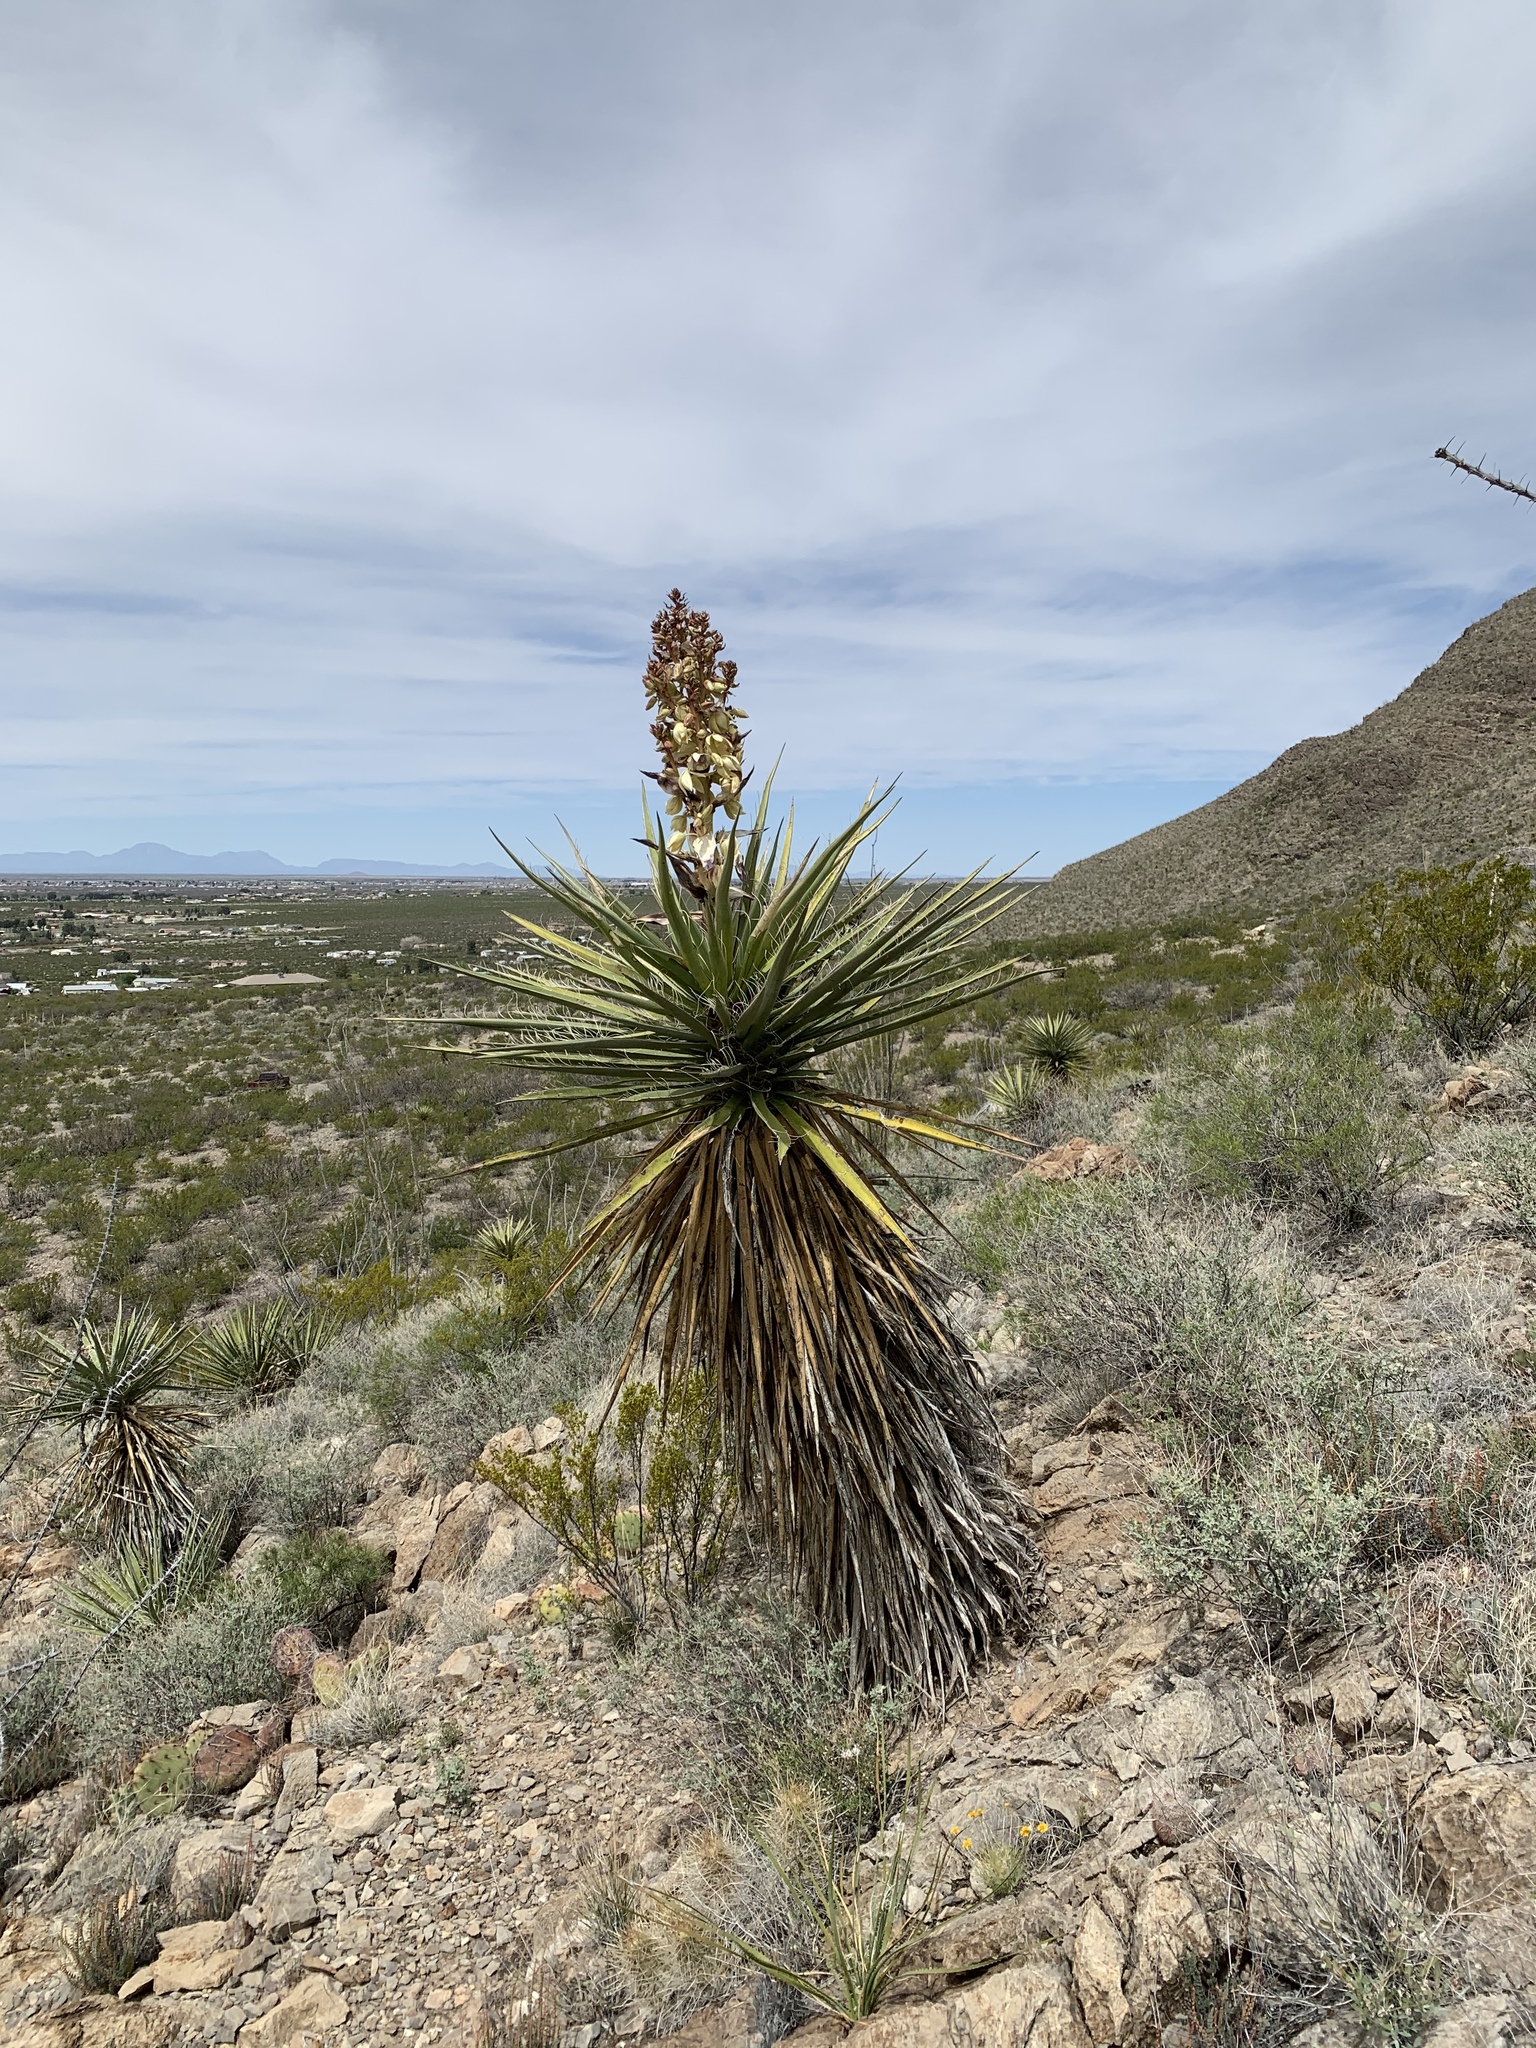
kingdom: Plantae
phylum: Tracheophyta
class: Liliopsida
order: Asparagales
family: Asparagaceae
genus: Yucca
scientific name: Yucca treculiana
